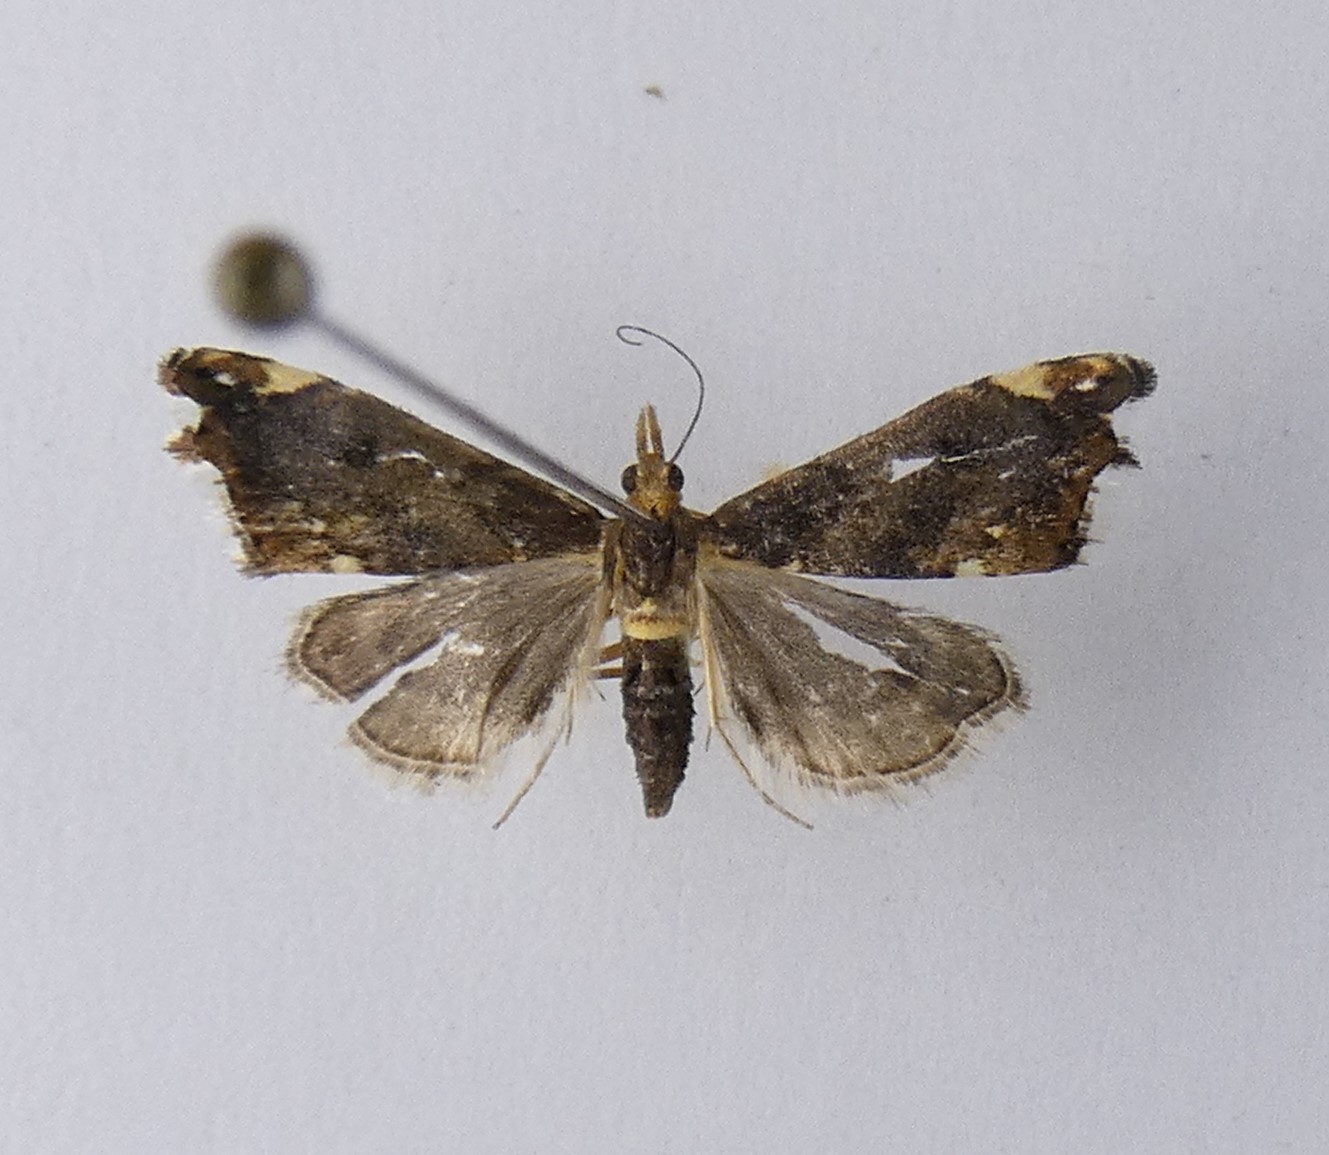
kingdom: Animalia
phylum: Arthropoda
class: Insecta
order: Lepidoptera
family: Crambidae
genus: Glaucocharis
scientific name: Glaucocharis pyrsophanes
